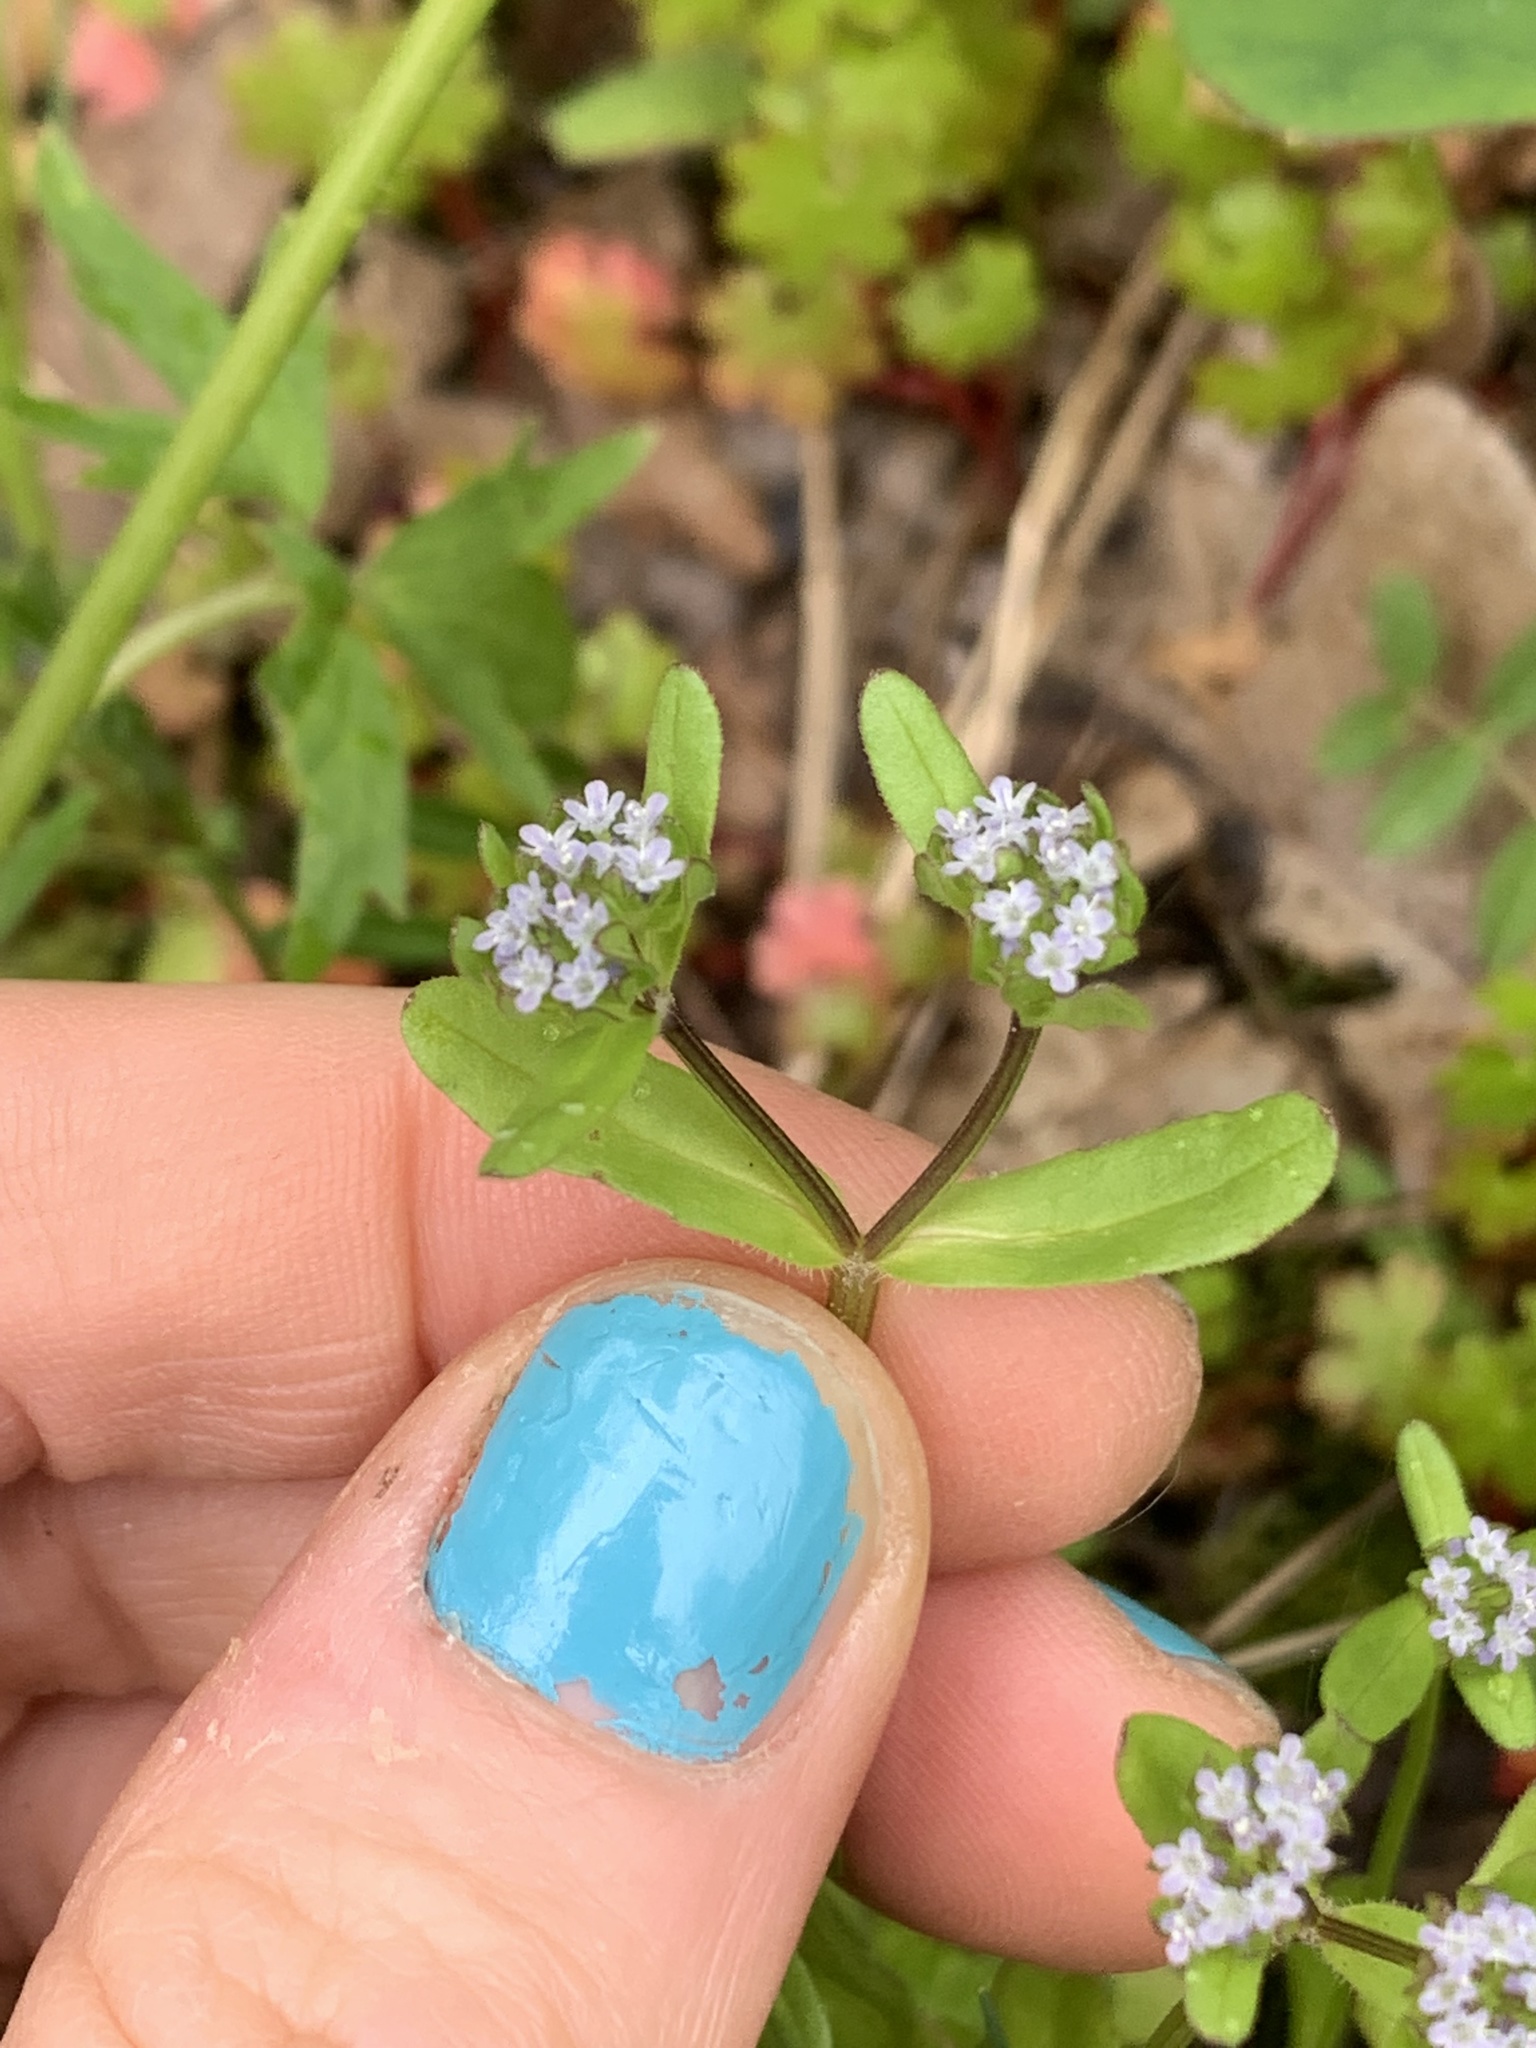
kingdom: Plantae
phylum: Tracheophyta
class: Magnoliopsida
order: Dipsacales
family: Caprifoliaceae
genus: Valerianella
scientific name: Valerianella locusta
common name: Common cornsalad
